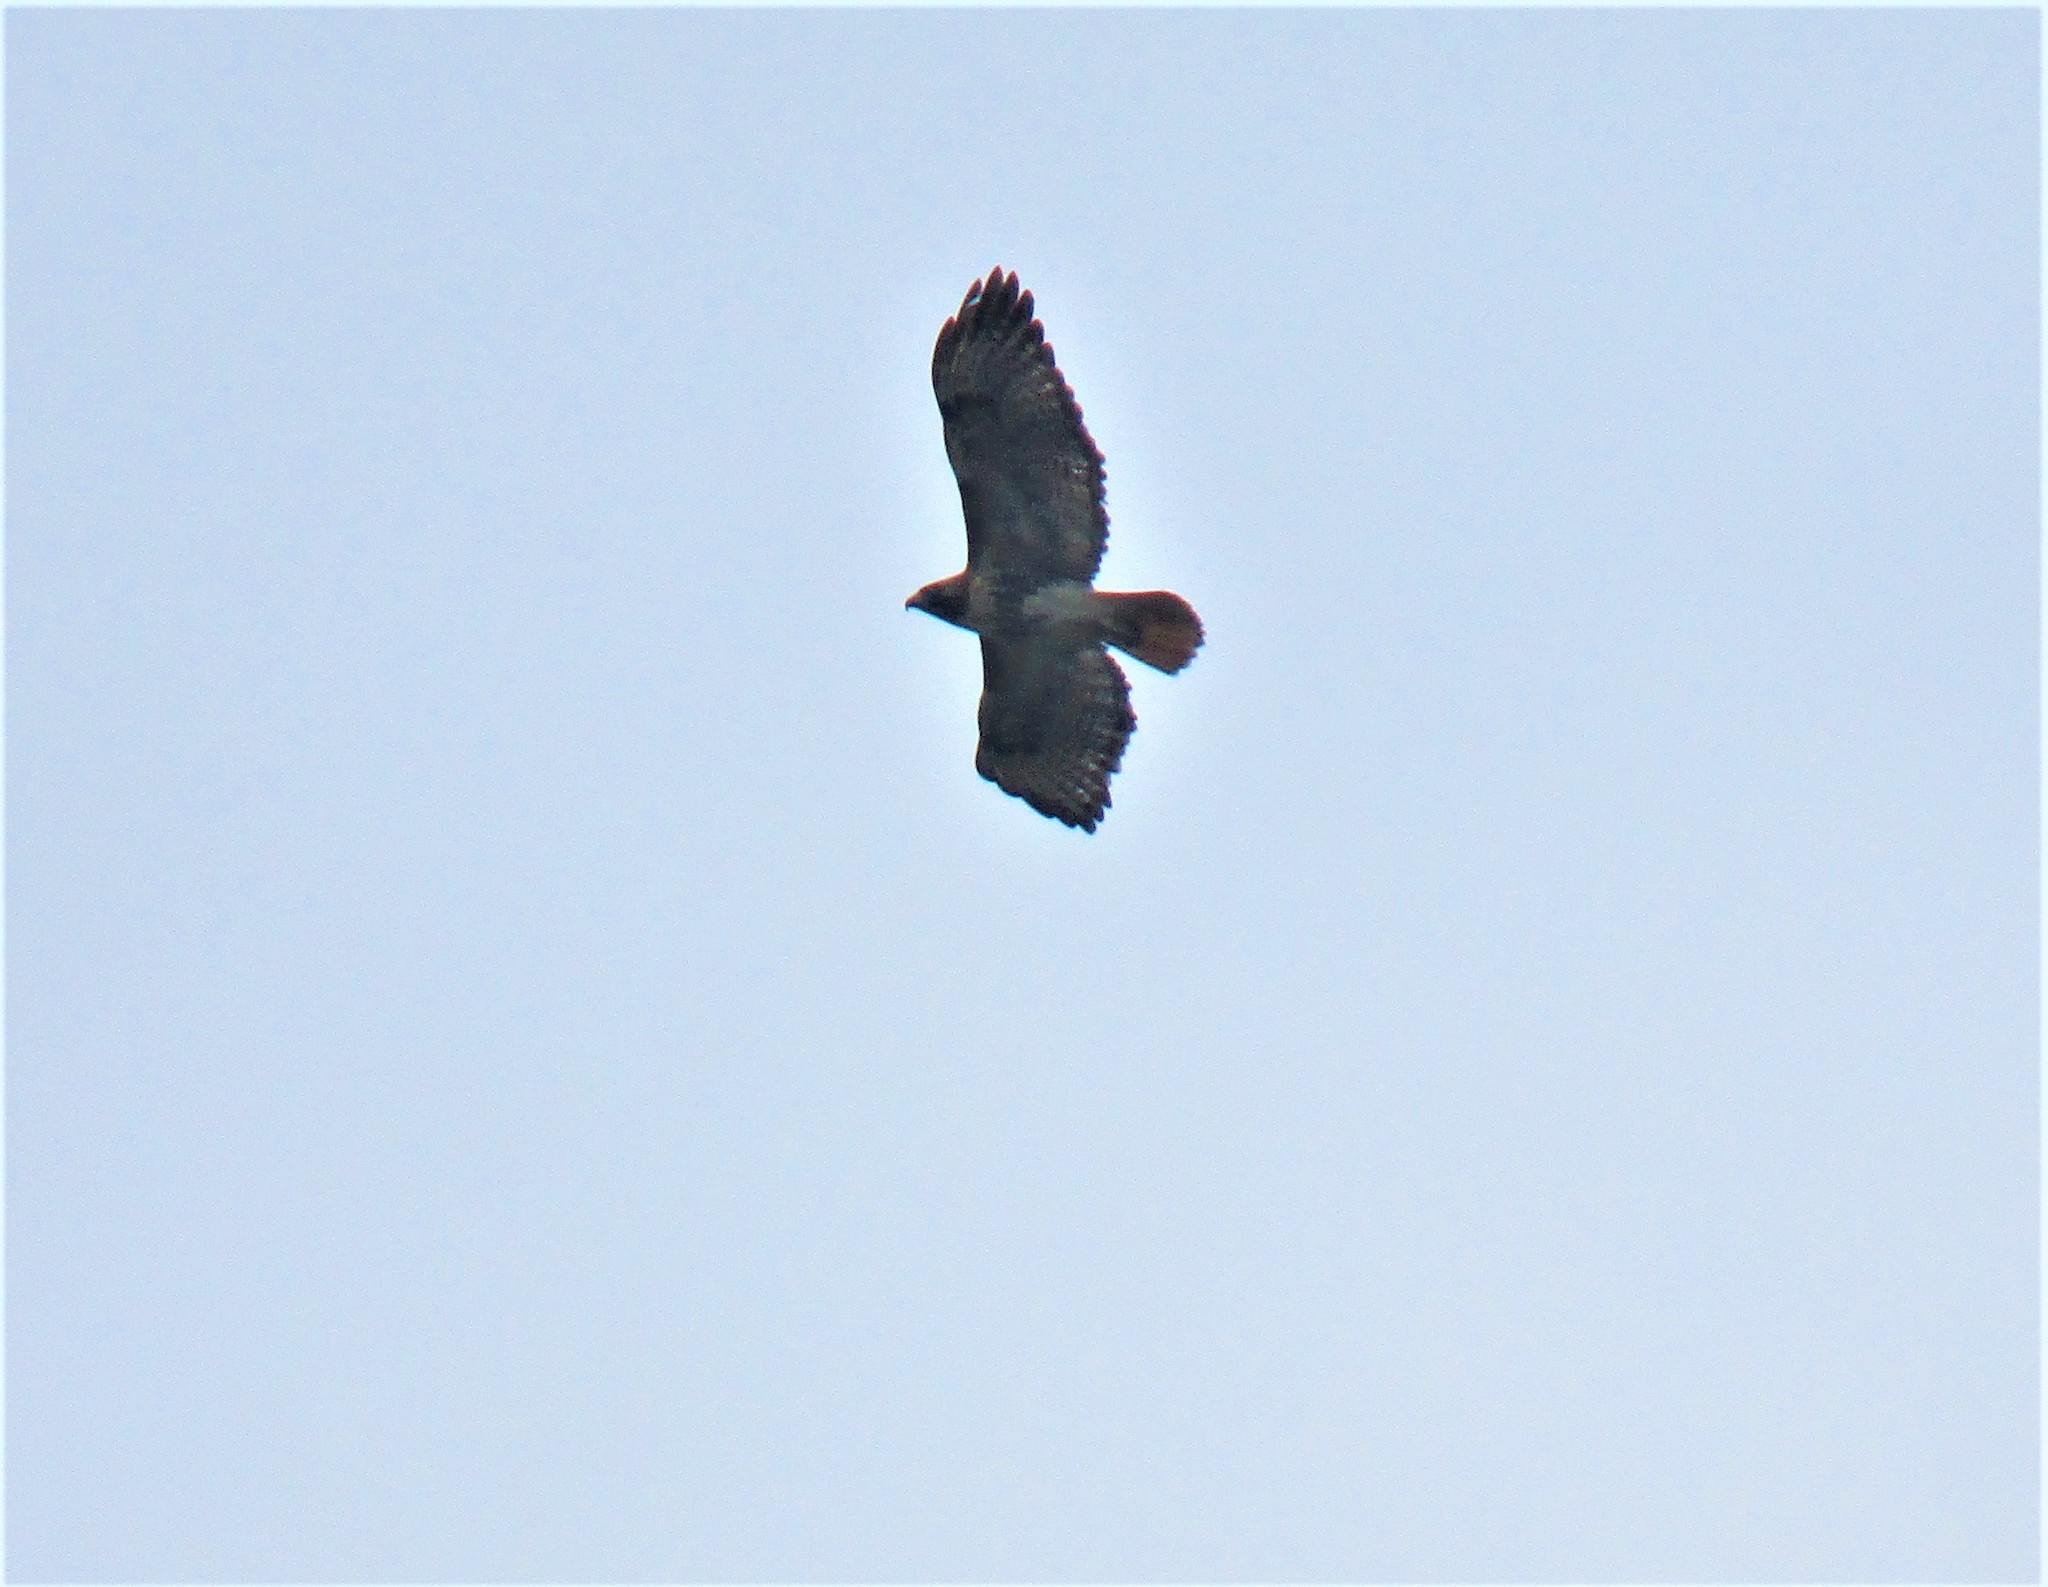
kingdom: Animalia
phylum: Chordata
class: Aves
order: Accipitriformes
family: Accipitridae
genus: Buteo
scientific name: Buteo jamaicensis
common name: Red-tailed hawk
